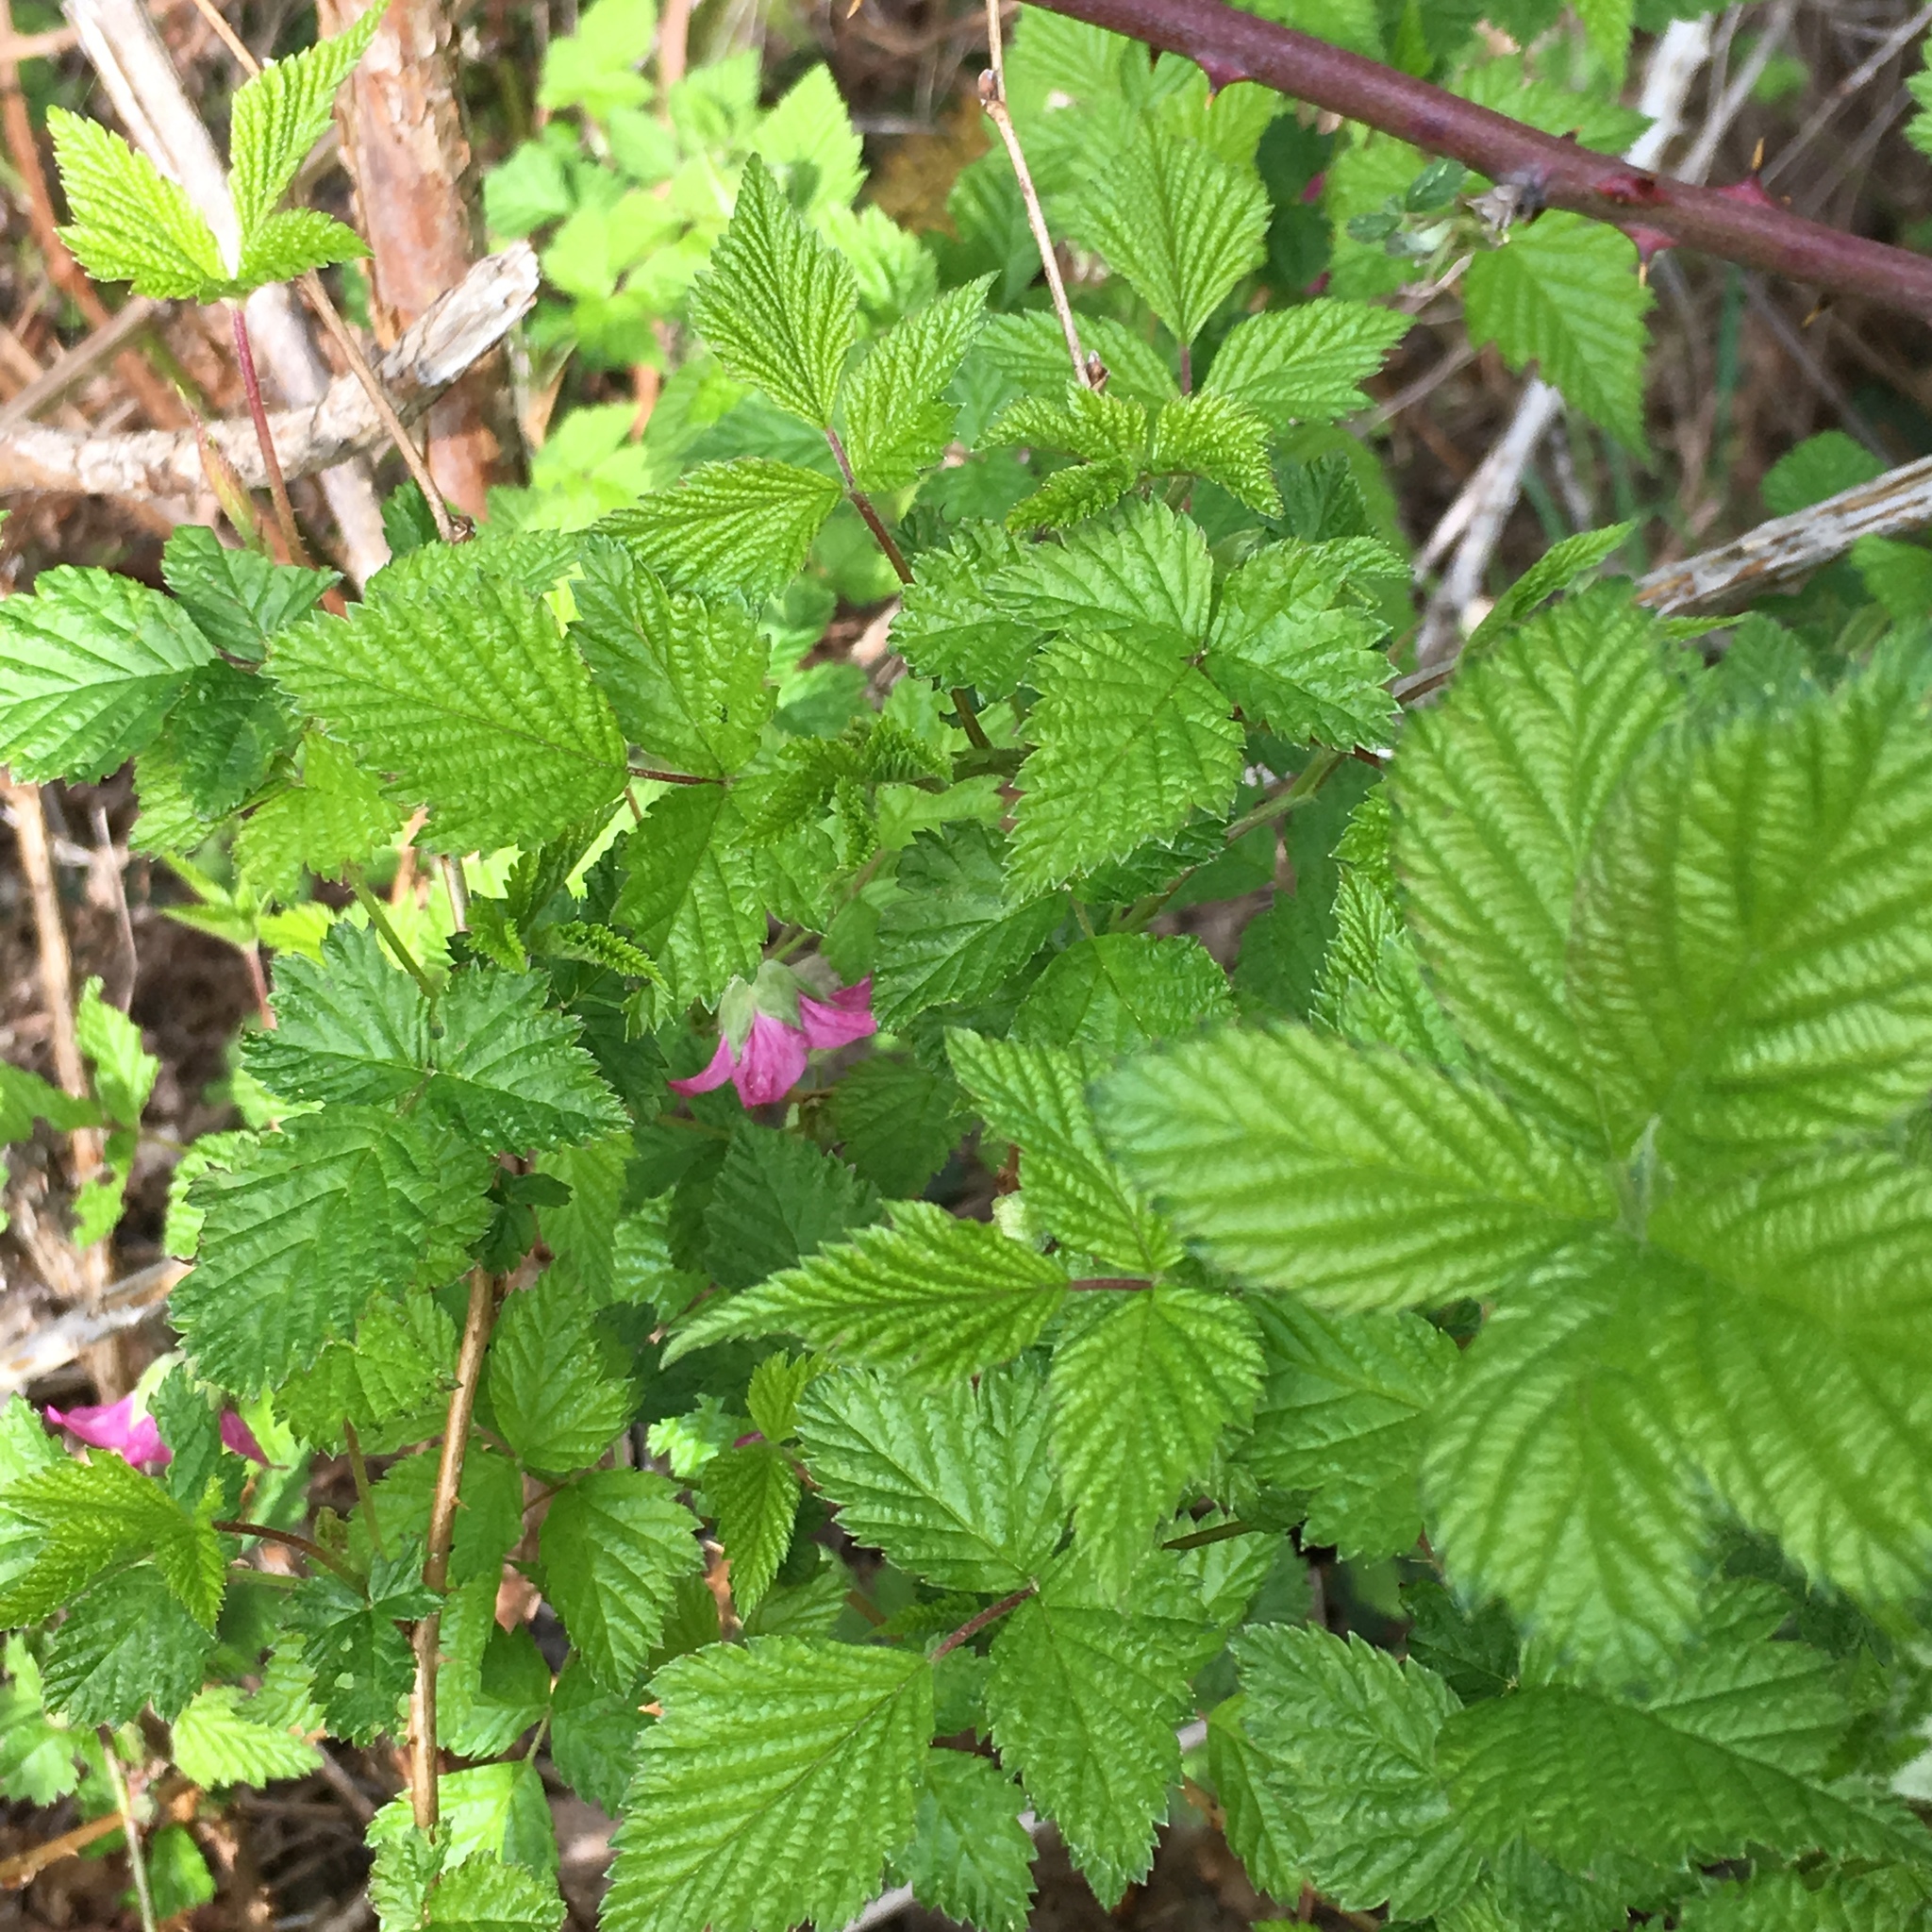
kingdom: Plantae
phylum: Tracheophyta
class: Magnoliopsida
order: Rosales
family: Rosaceae
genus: Rubus
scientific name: Rubus spectabilis
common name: Salmonberry
